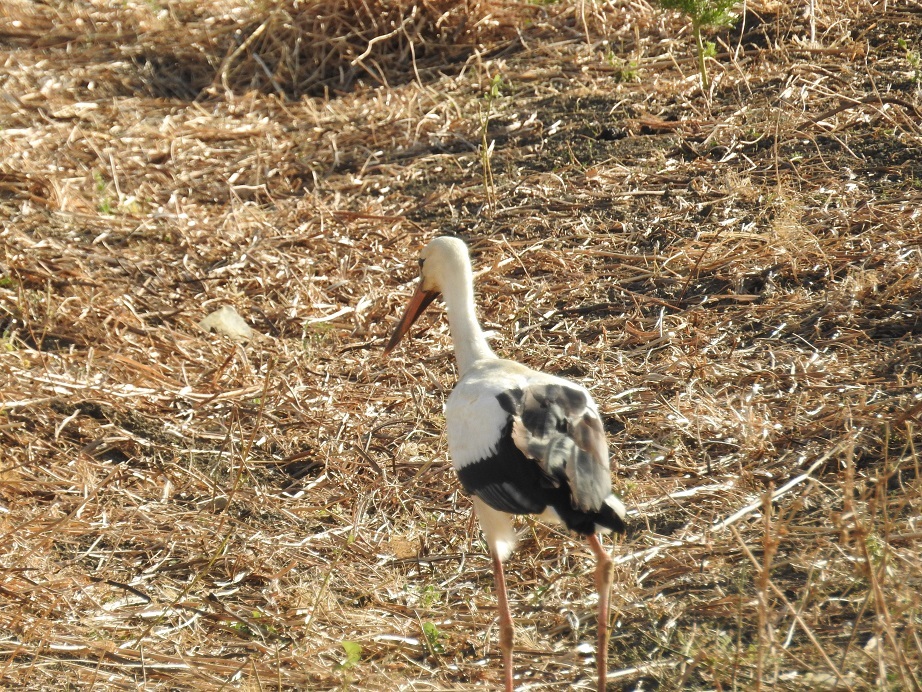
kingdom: Animalia
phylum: Chordata
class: Aves
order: Ciconiiformes
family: Ciconiidae
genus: Ciconia
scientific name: Ciconia ciconia
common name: White stork
